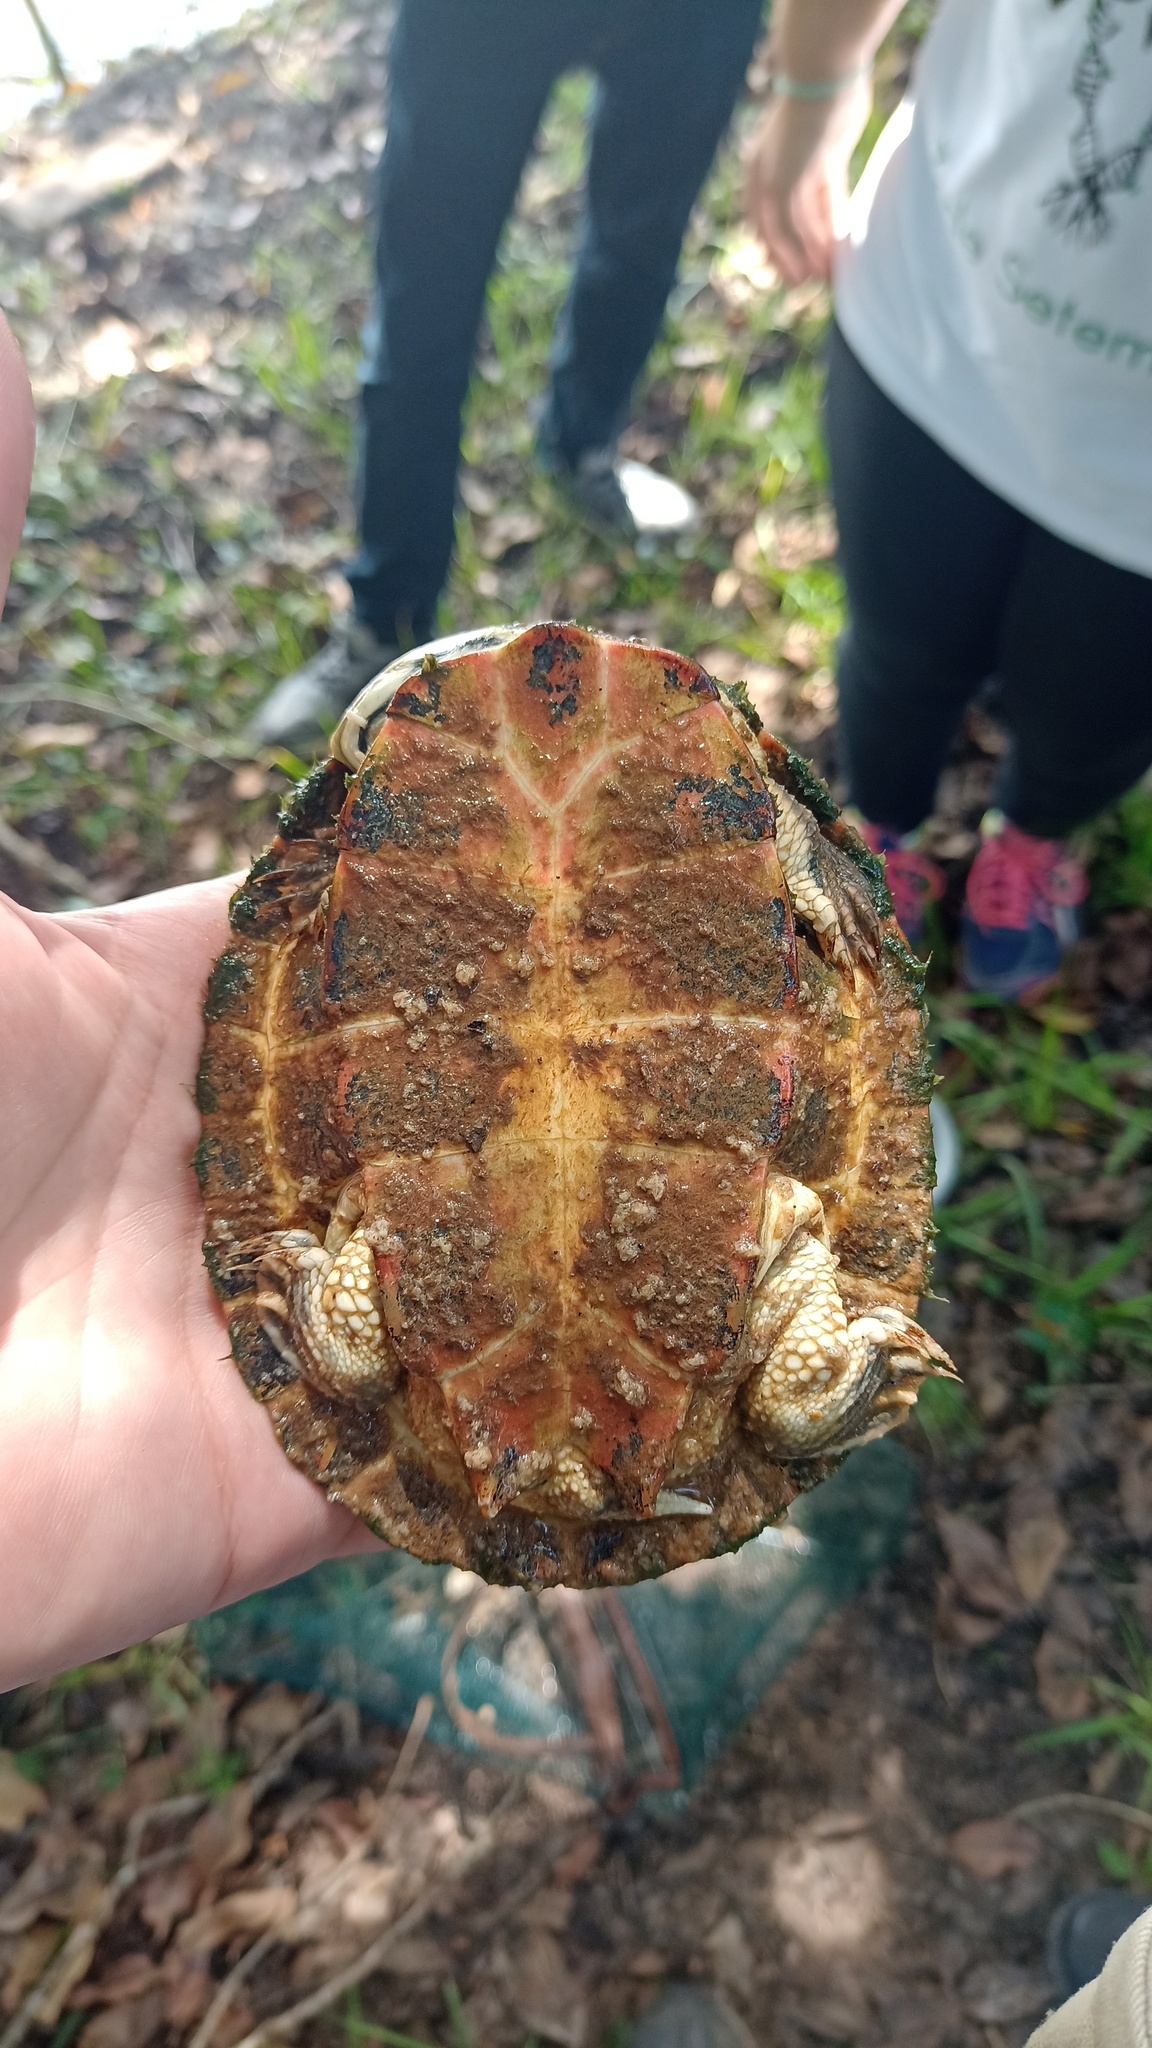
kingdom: Animalia
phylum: Chordata
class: Testudines
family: Chelidae
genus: Phrynops
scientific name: Phrynops geoffroanus
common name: Side-necked turtle of geoffroy
